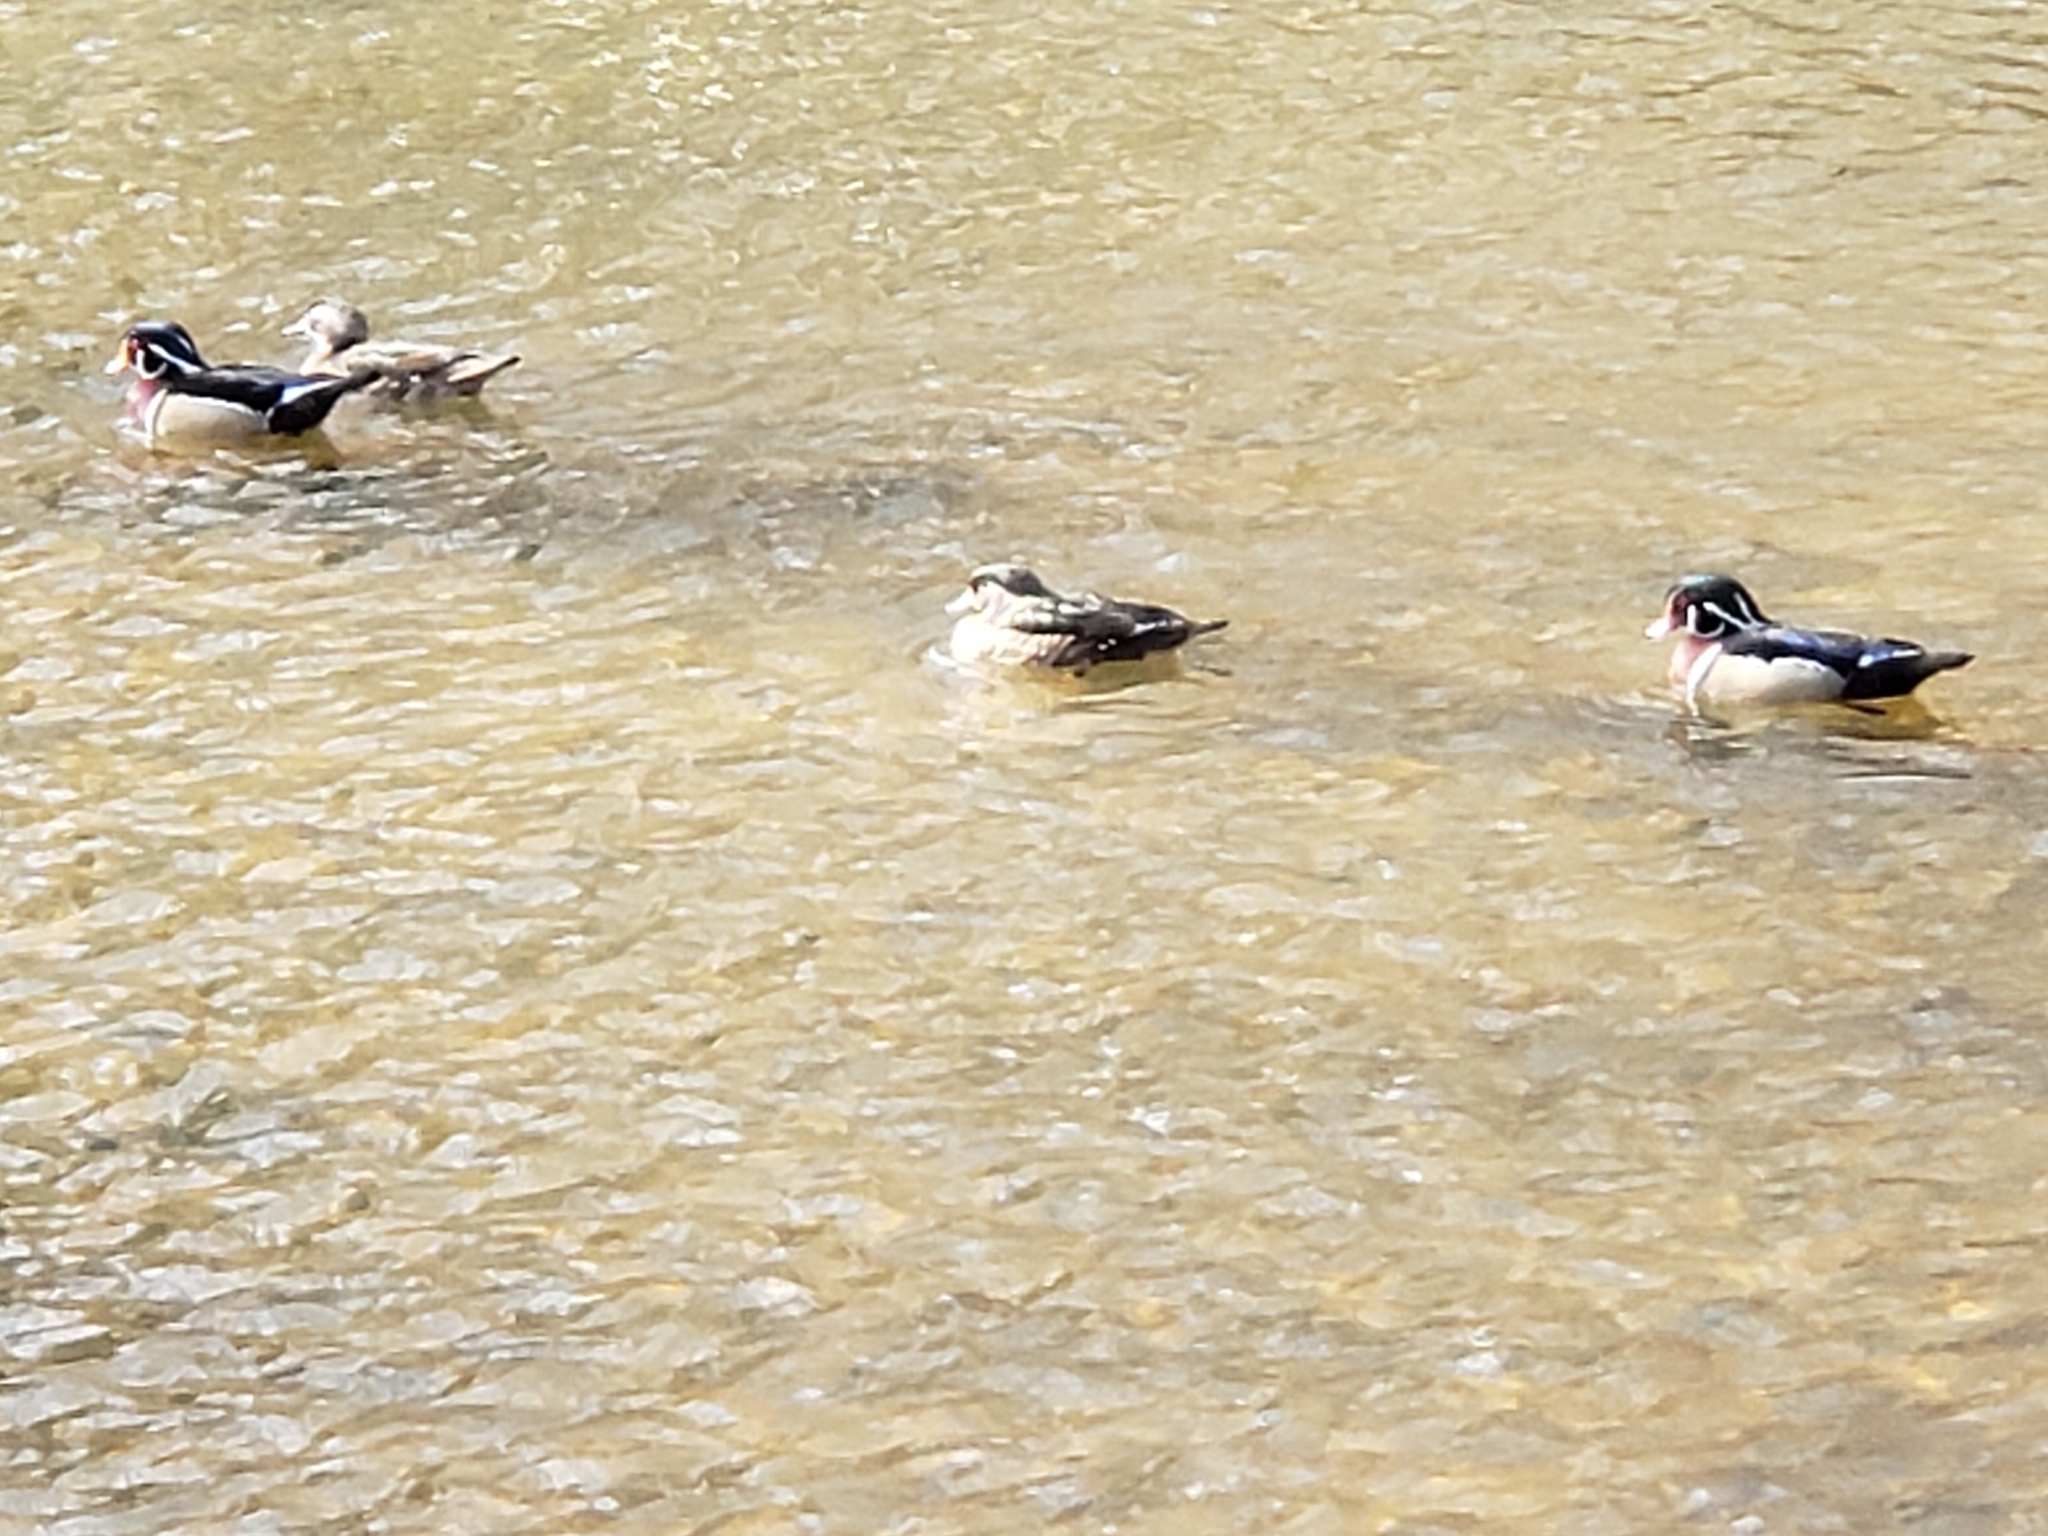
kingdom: Animalia
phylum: Chordata
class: Aves
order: Anseriformes
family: Anatidae
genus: Aix
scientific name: Aix sponsa
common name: Wood duck
